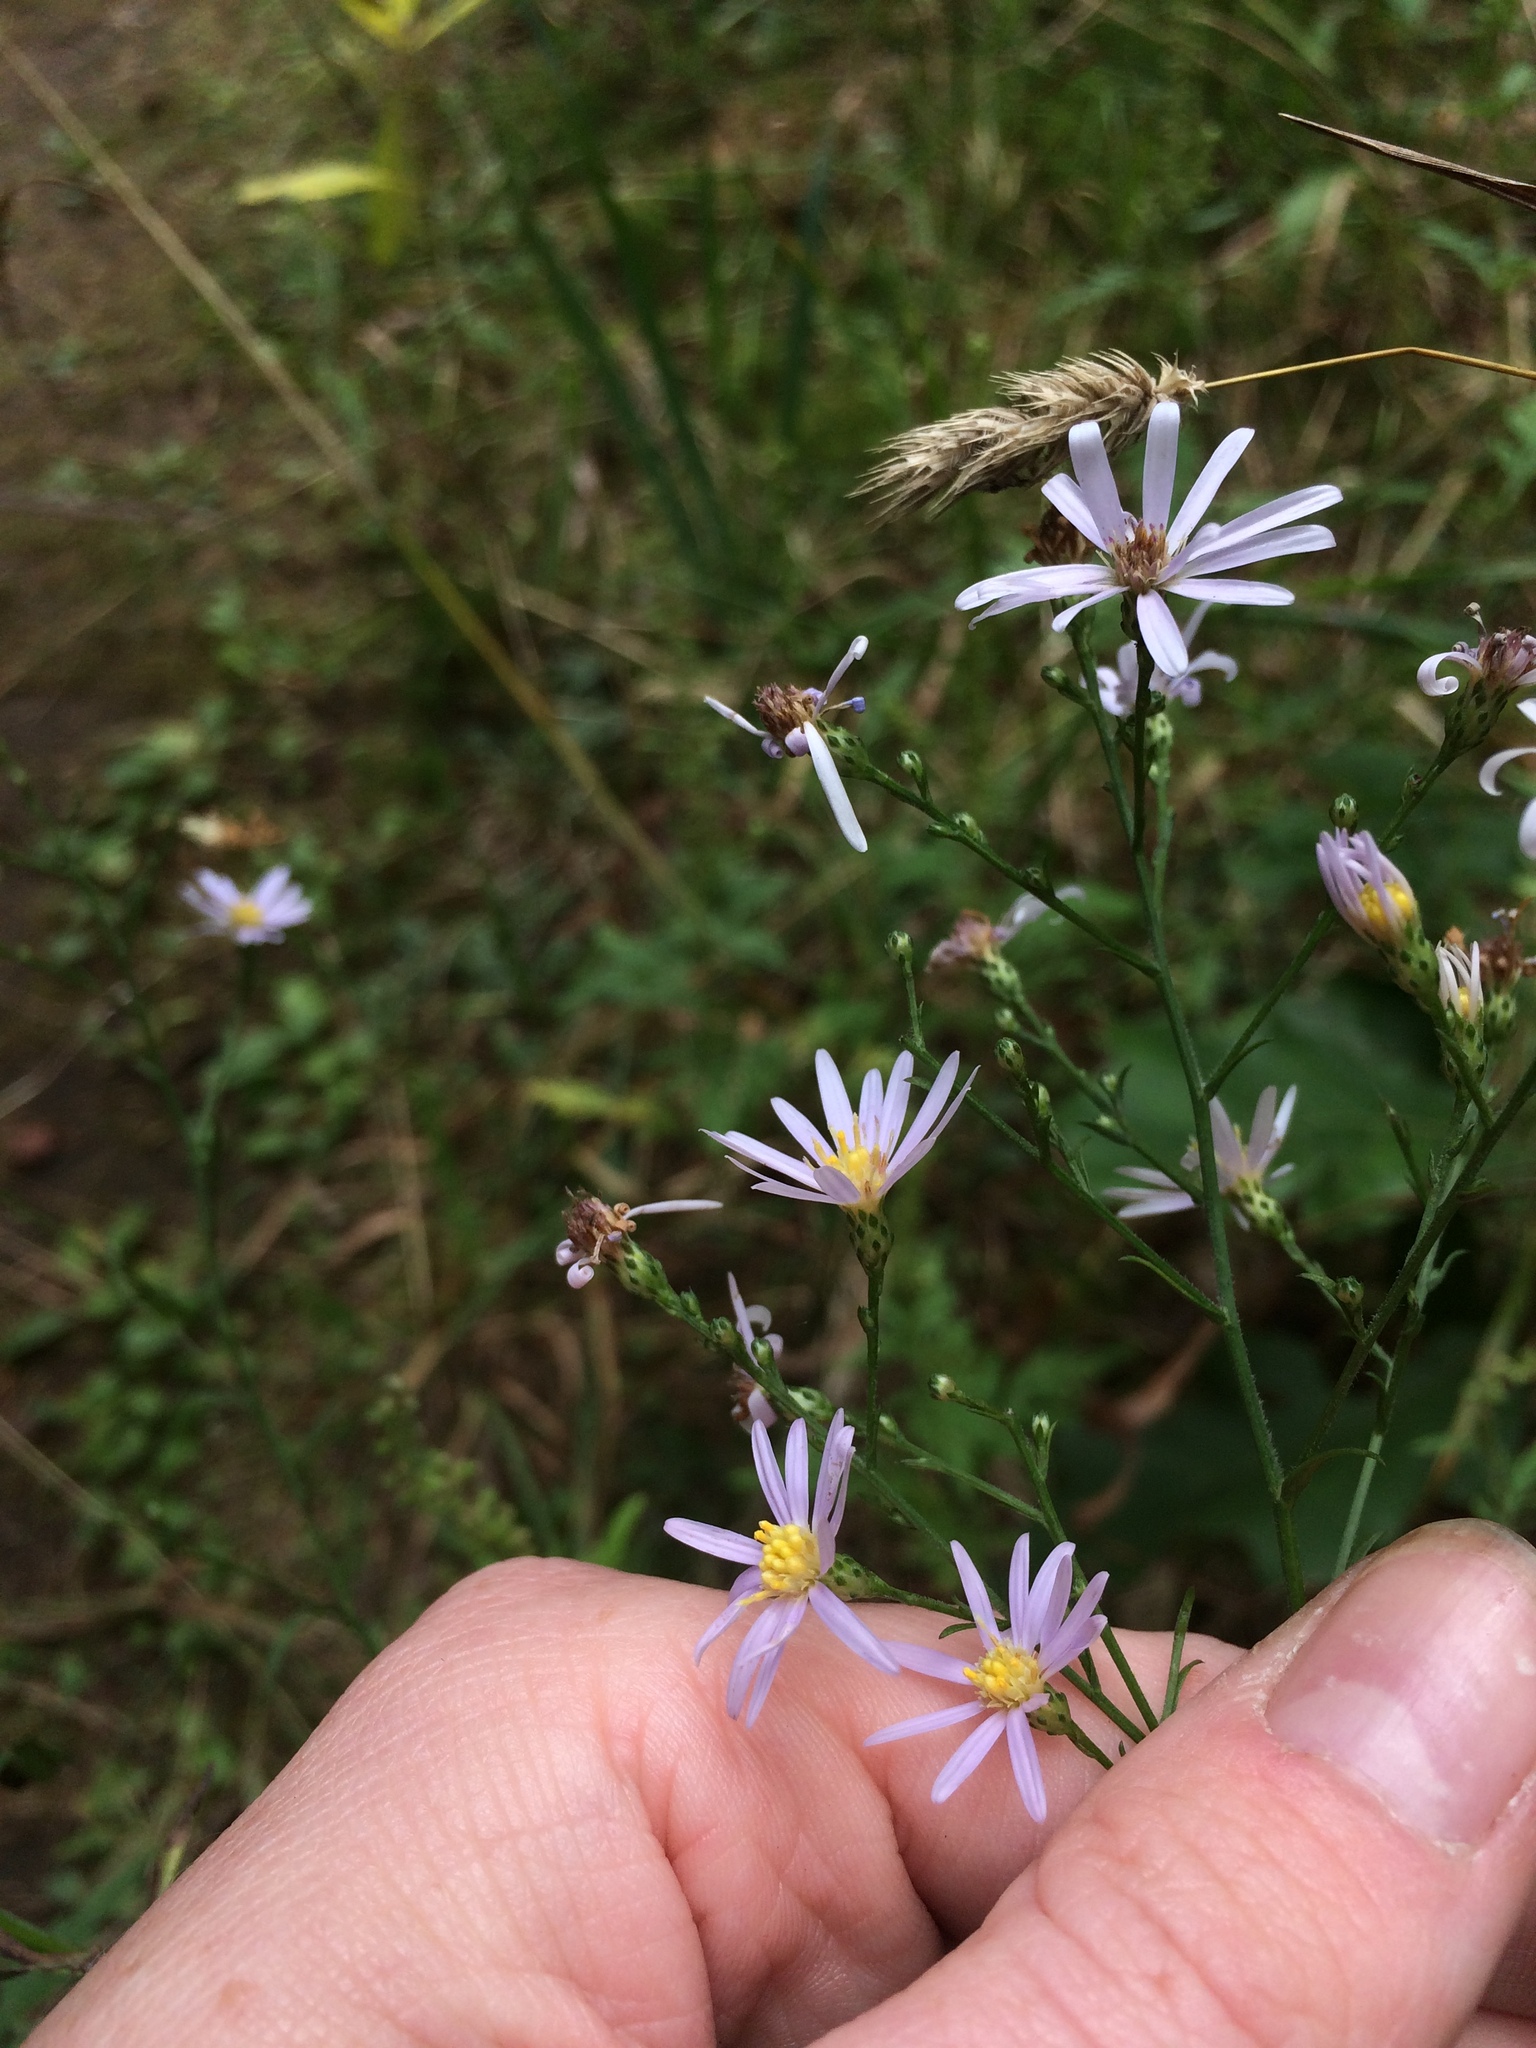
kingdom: Plantae
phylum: Tracheophyta
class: Magnoliopsida
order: Asterales
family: Asteraceae
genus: Symphyotrichum
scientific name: Symphyotrichum oolentangiense
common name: Azure aster
